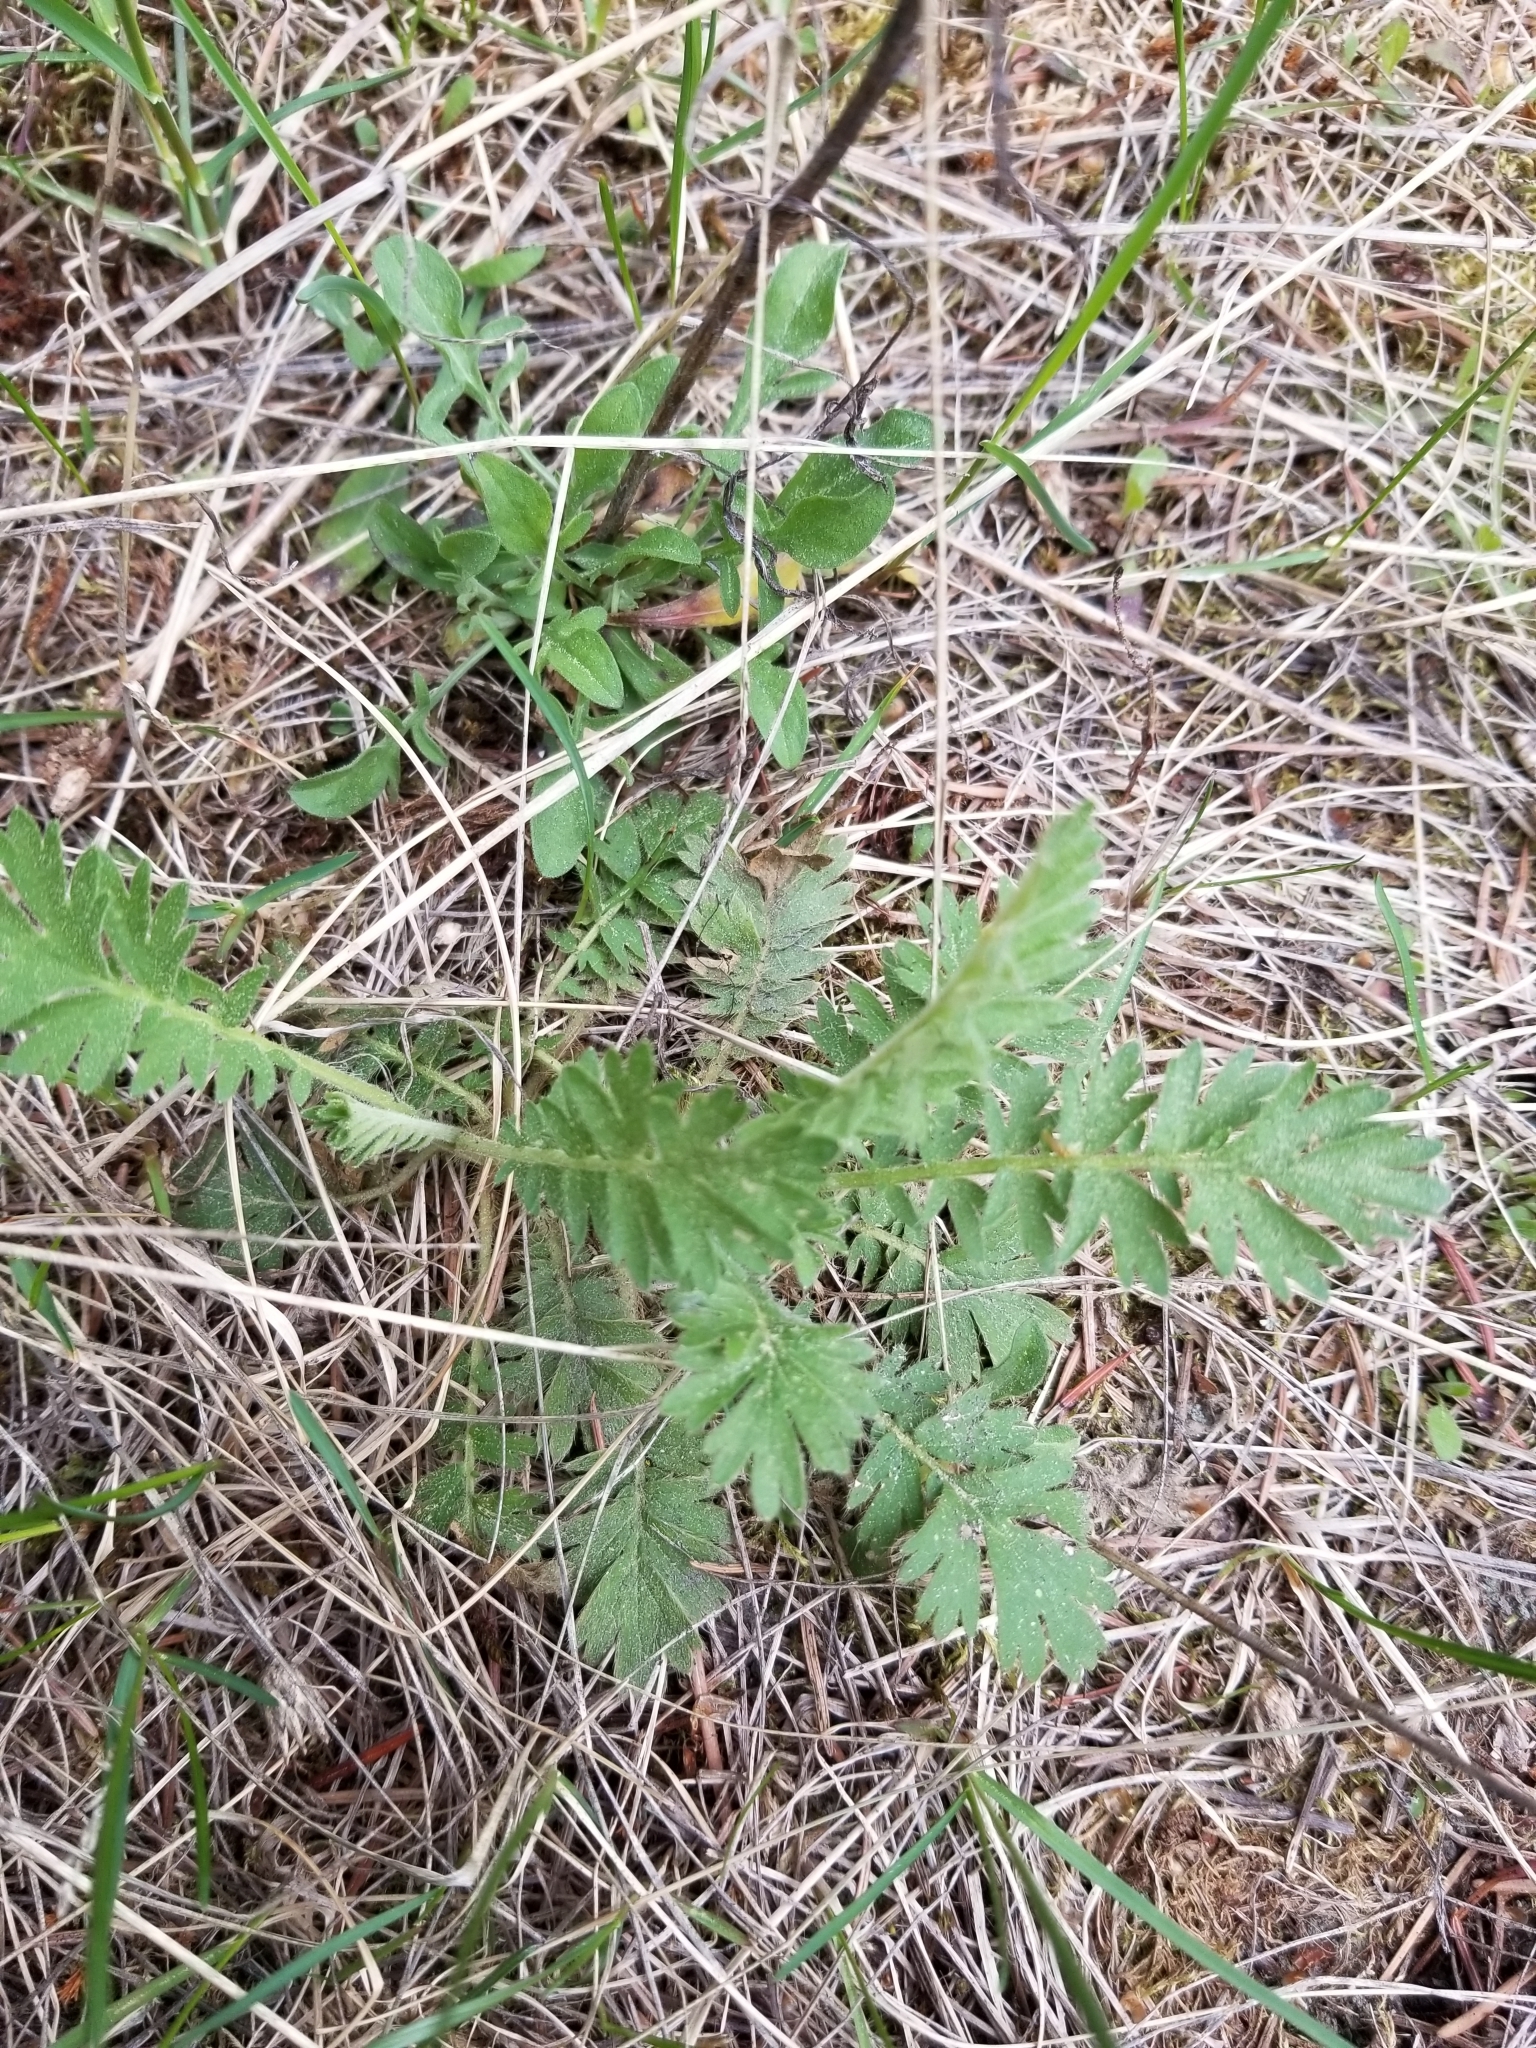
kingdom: Plantae
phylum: Tracheophyta
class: Magnoliopsida
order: Rosales
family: Rosaceae
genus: Geum
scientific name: Geum triflorum
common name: Old man's whiskers
